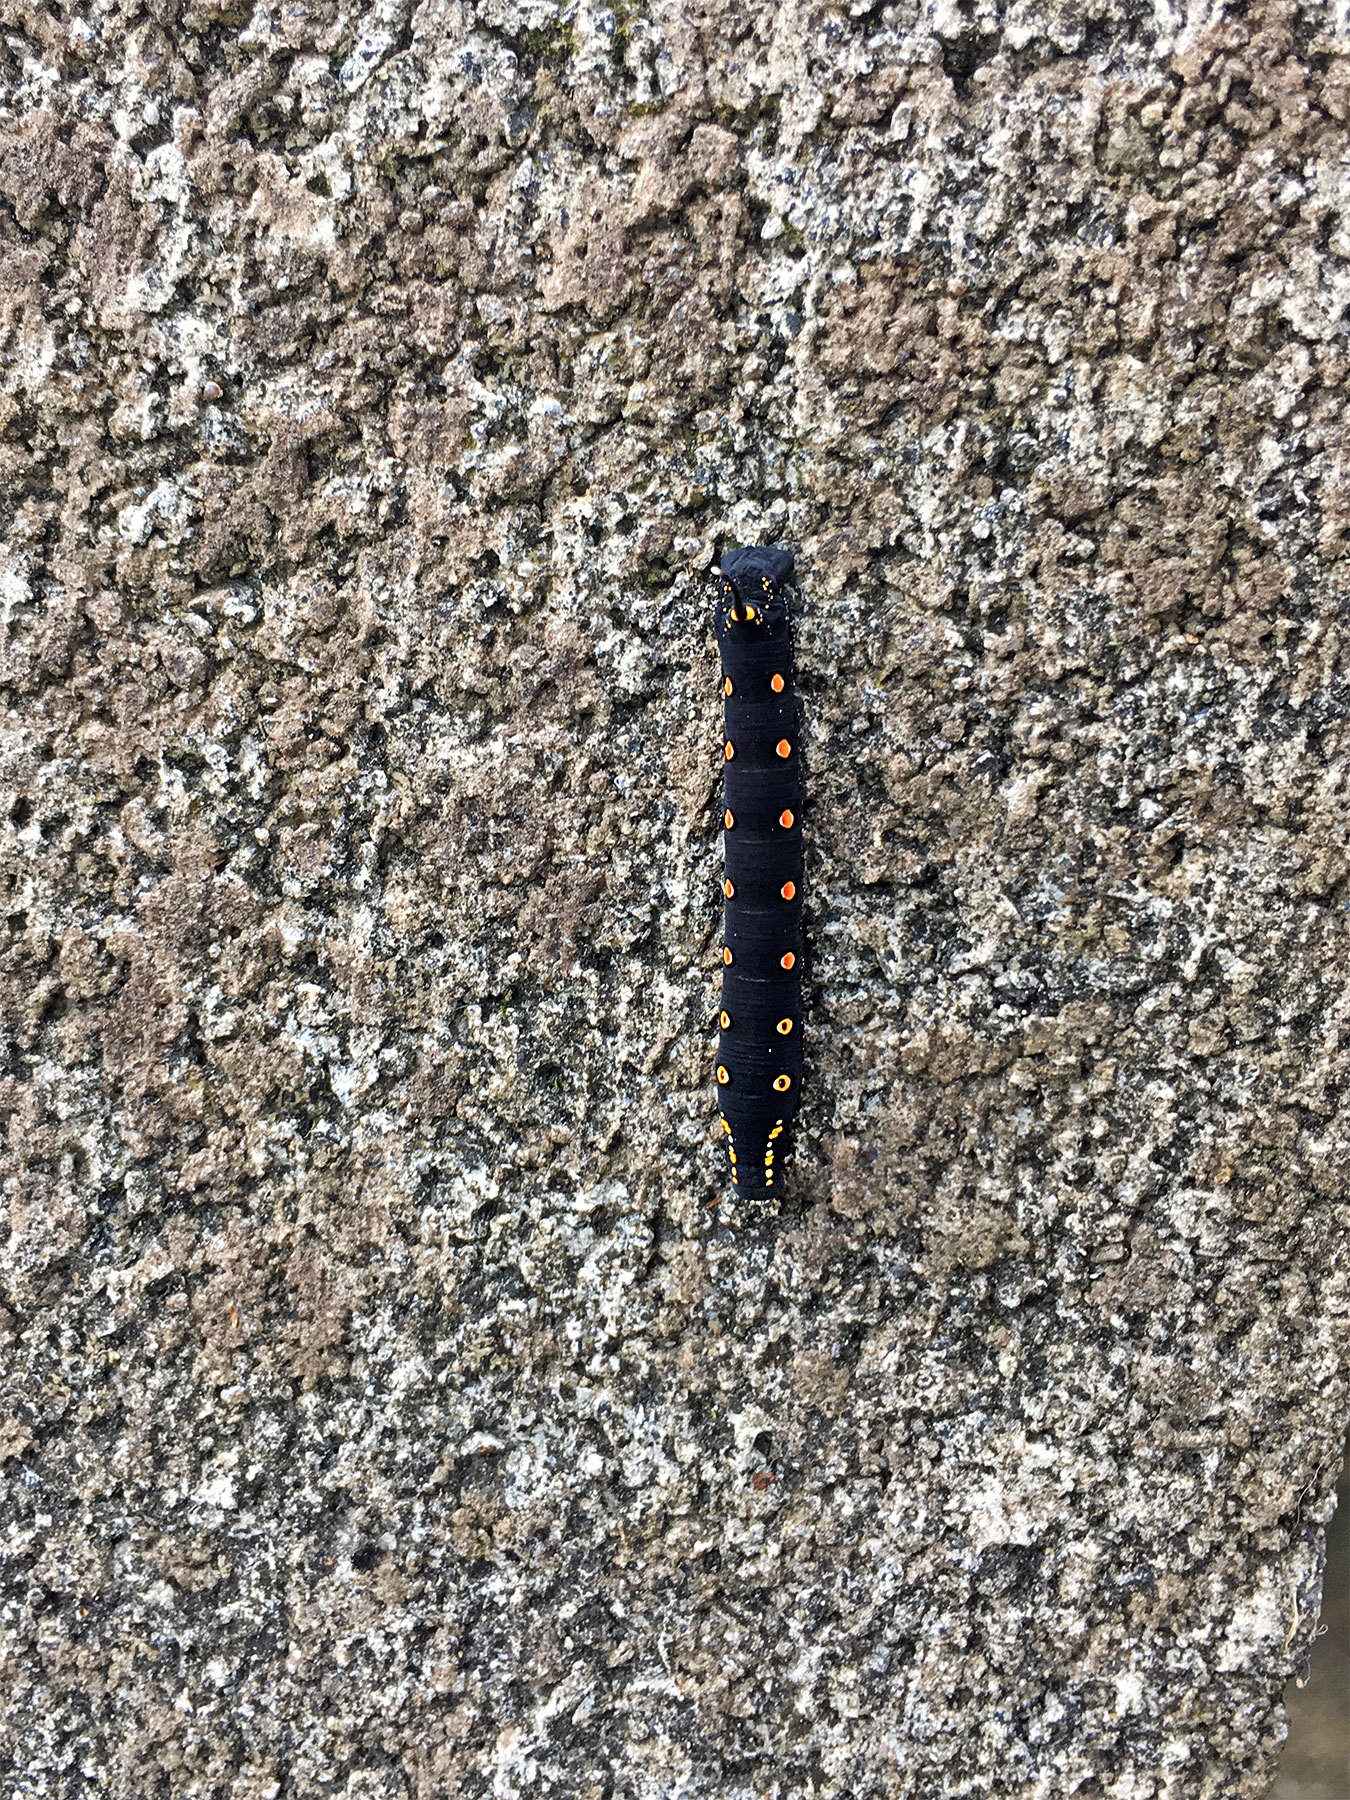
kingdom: Animalia
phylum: Arthropoda
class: Insecta
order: Lepidoptera
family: Sphingidae
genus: Theretra
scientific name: Theretra oldenlandiae
